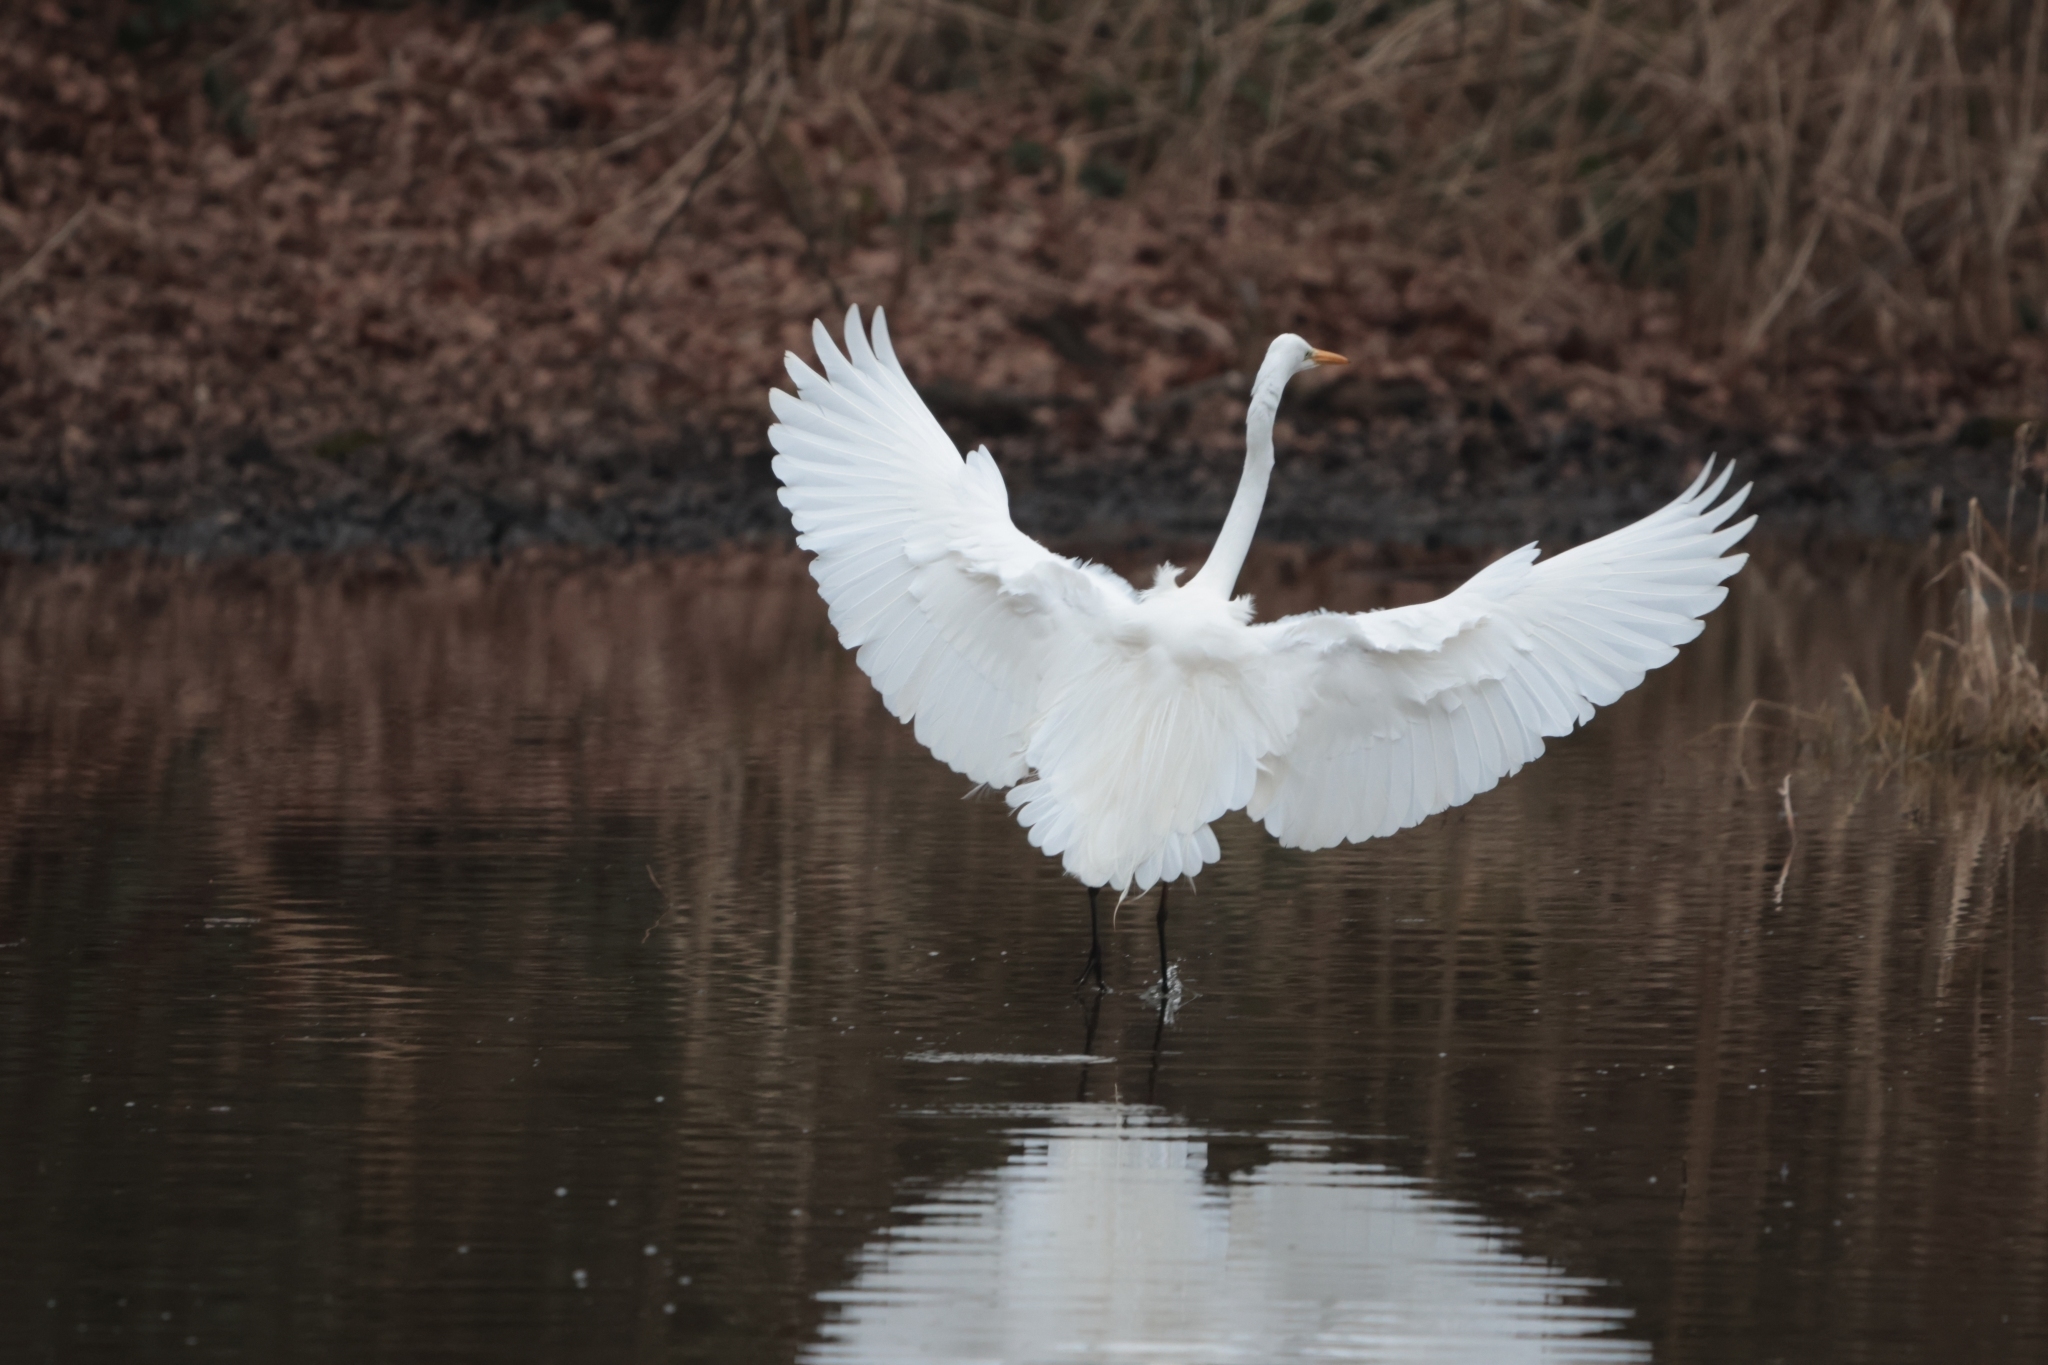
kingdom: Animalia
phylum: Chordata
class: Aves
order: Pelecaniformes
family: Ardeidae
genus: Ardea
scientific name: Ardea alba
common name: Great egret
